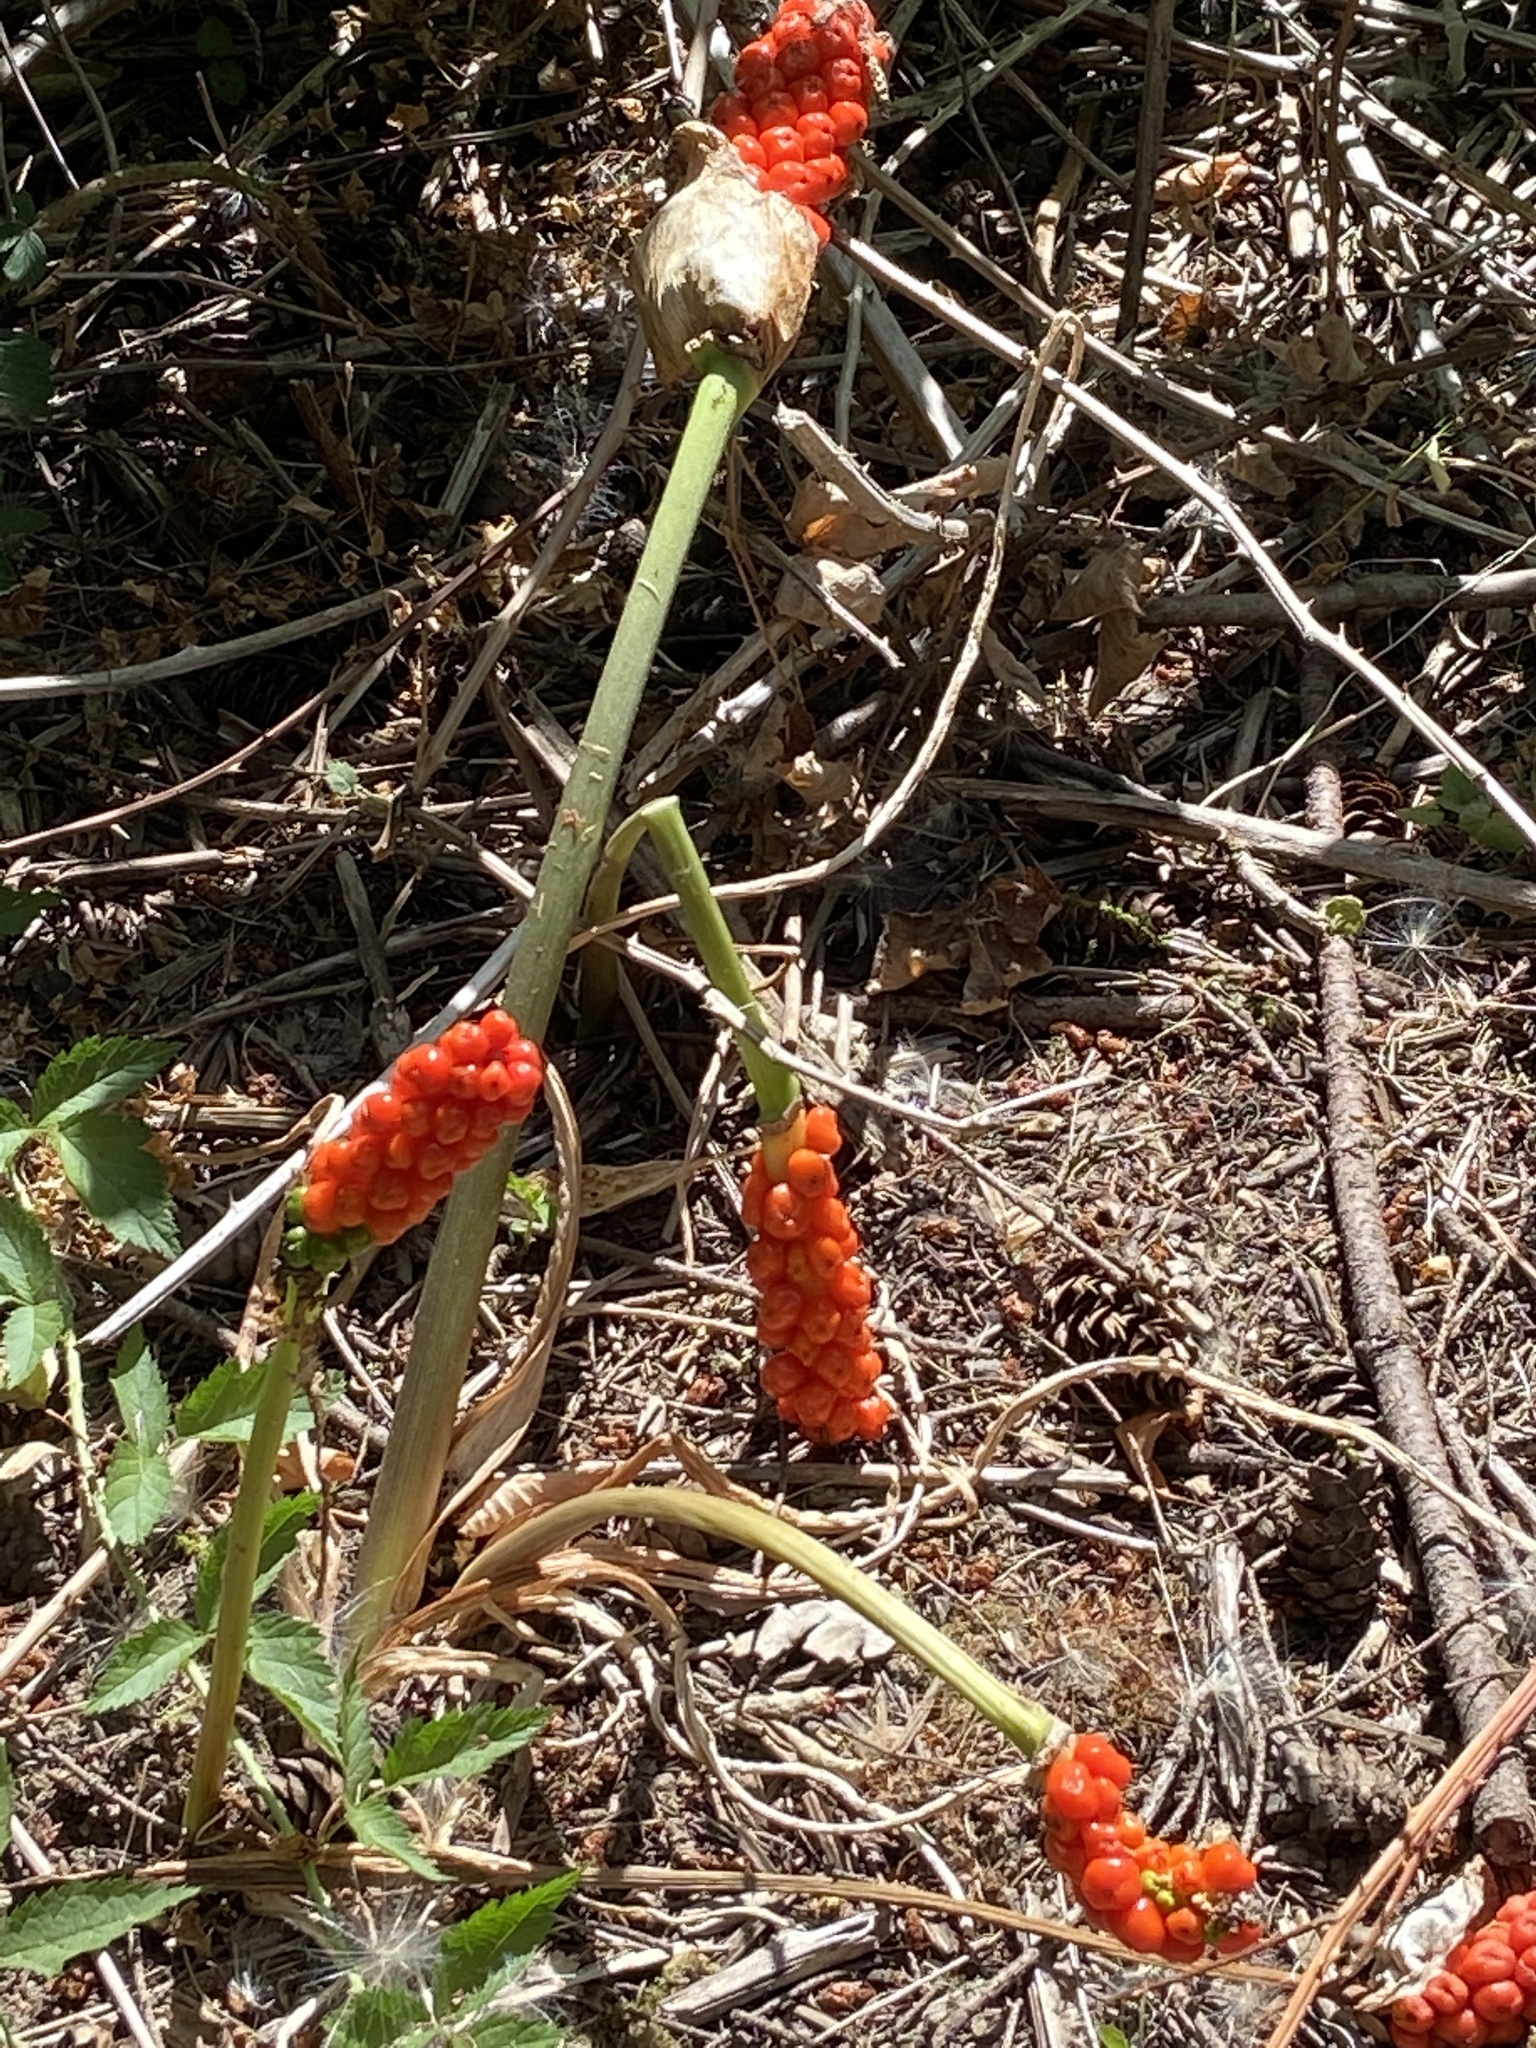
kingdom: Plantae
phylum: Tracheophyta
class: Liliopsida
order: Alismatales
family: Araceae
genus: Arum
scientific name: Arum italicum
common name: Italian lords-and-ladies
